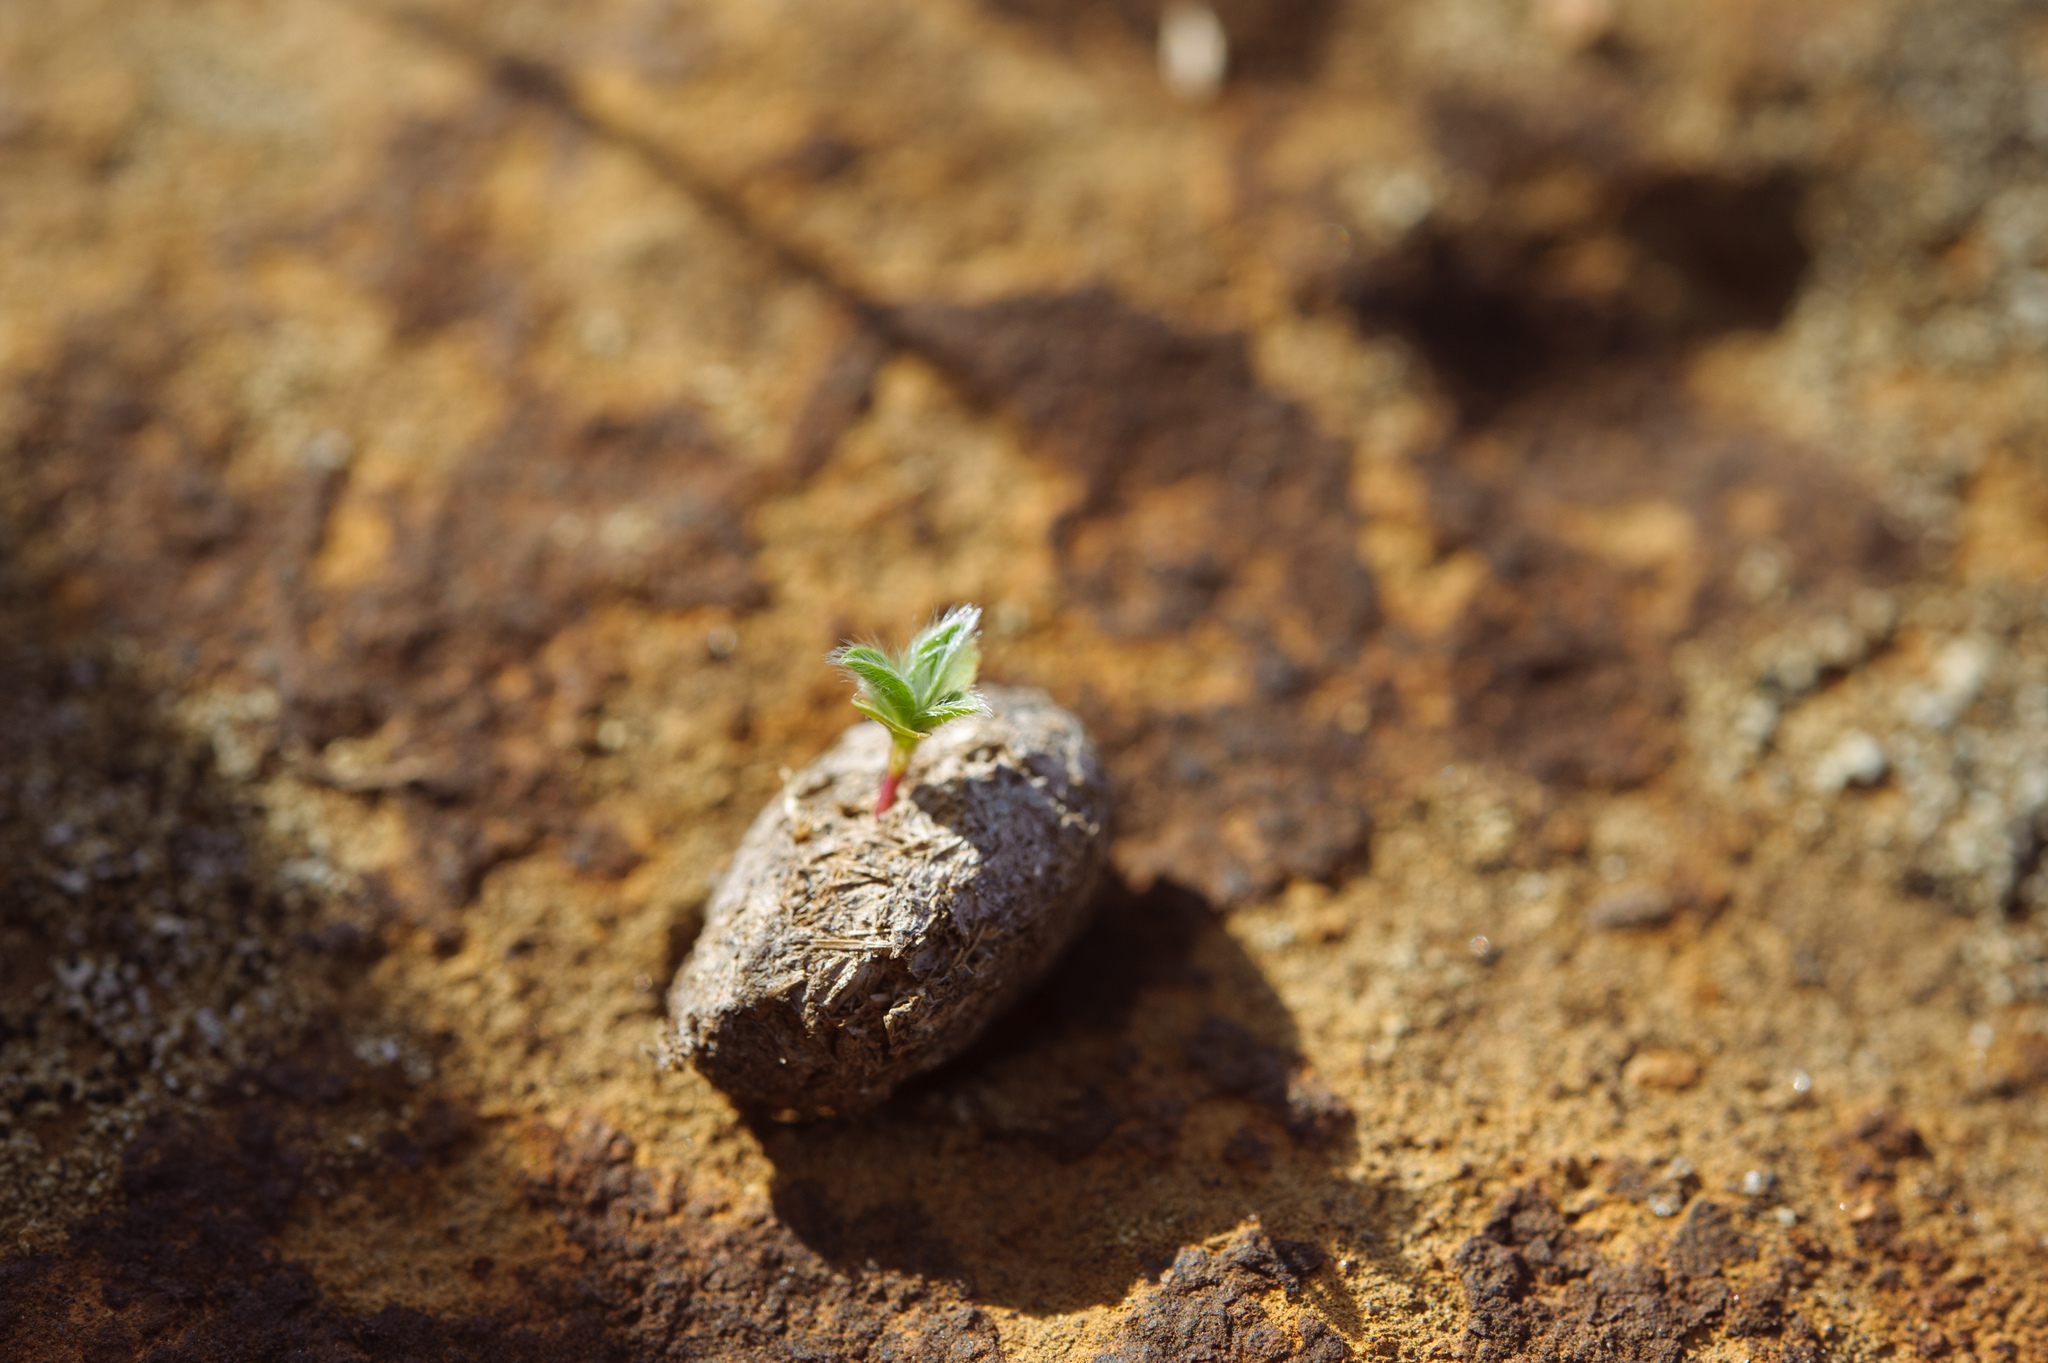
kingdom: Plantae
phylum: Tracheophyta
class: Magnoliopsida
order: Solanales
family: Convolvulaceae
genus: Evolvulus
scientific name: Evolvulus alsinoides
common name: Slender dwarf morning-glory
